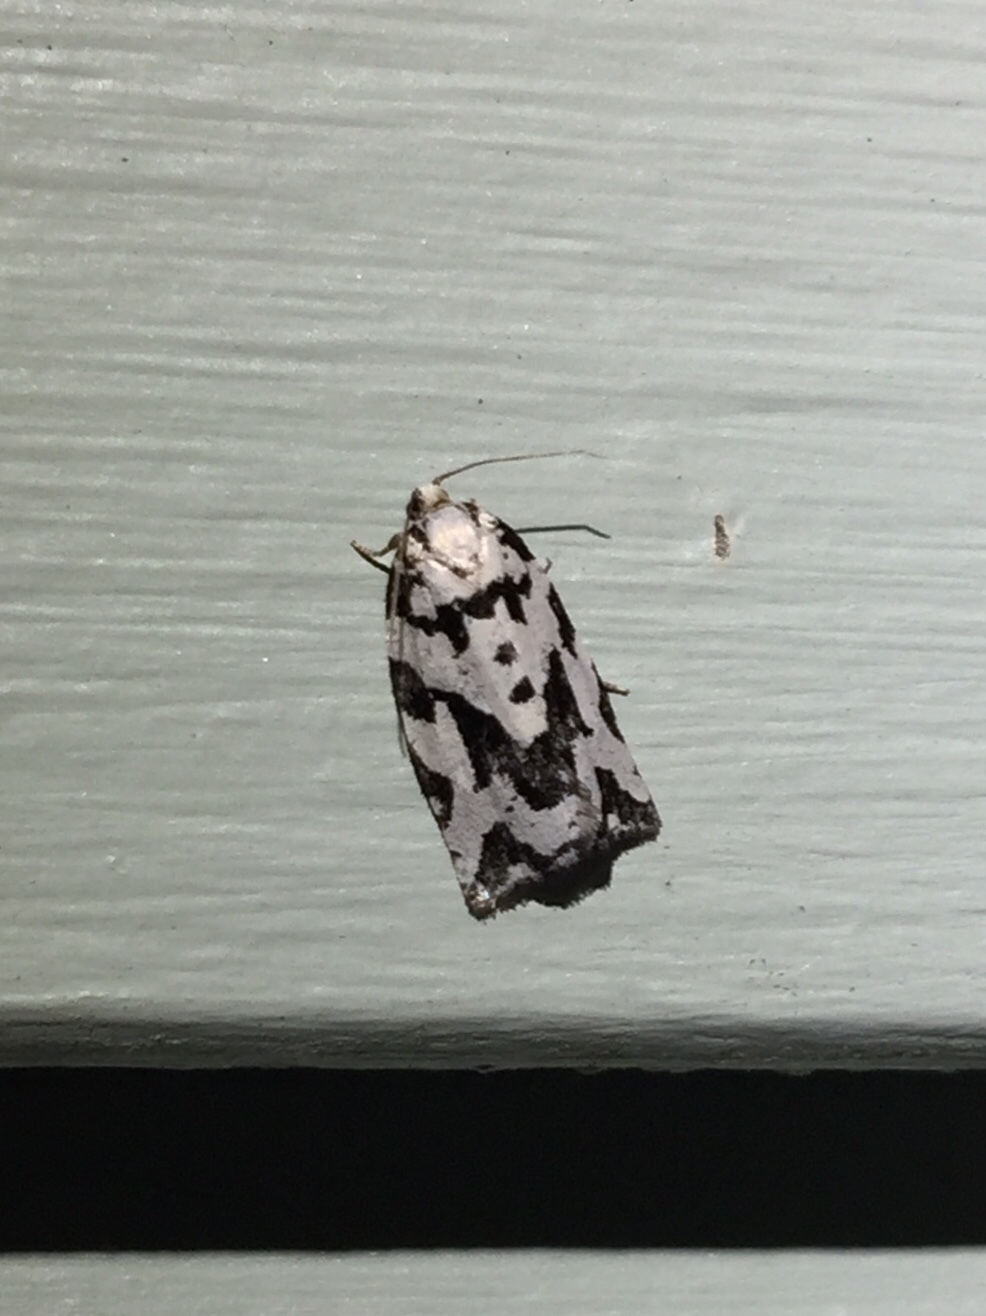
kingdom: Animalia
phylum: Arthropoda
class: Insecta
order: Lepidoptera
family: Tortricidae
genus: Archips
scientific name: Archips dissitana
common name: Boldly-marked archips moth
